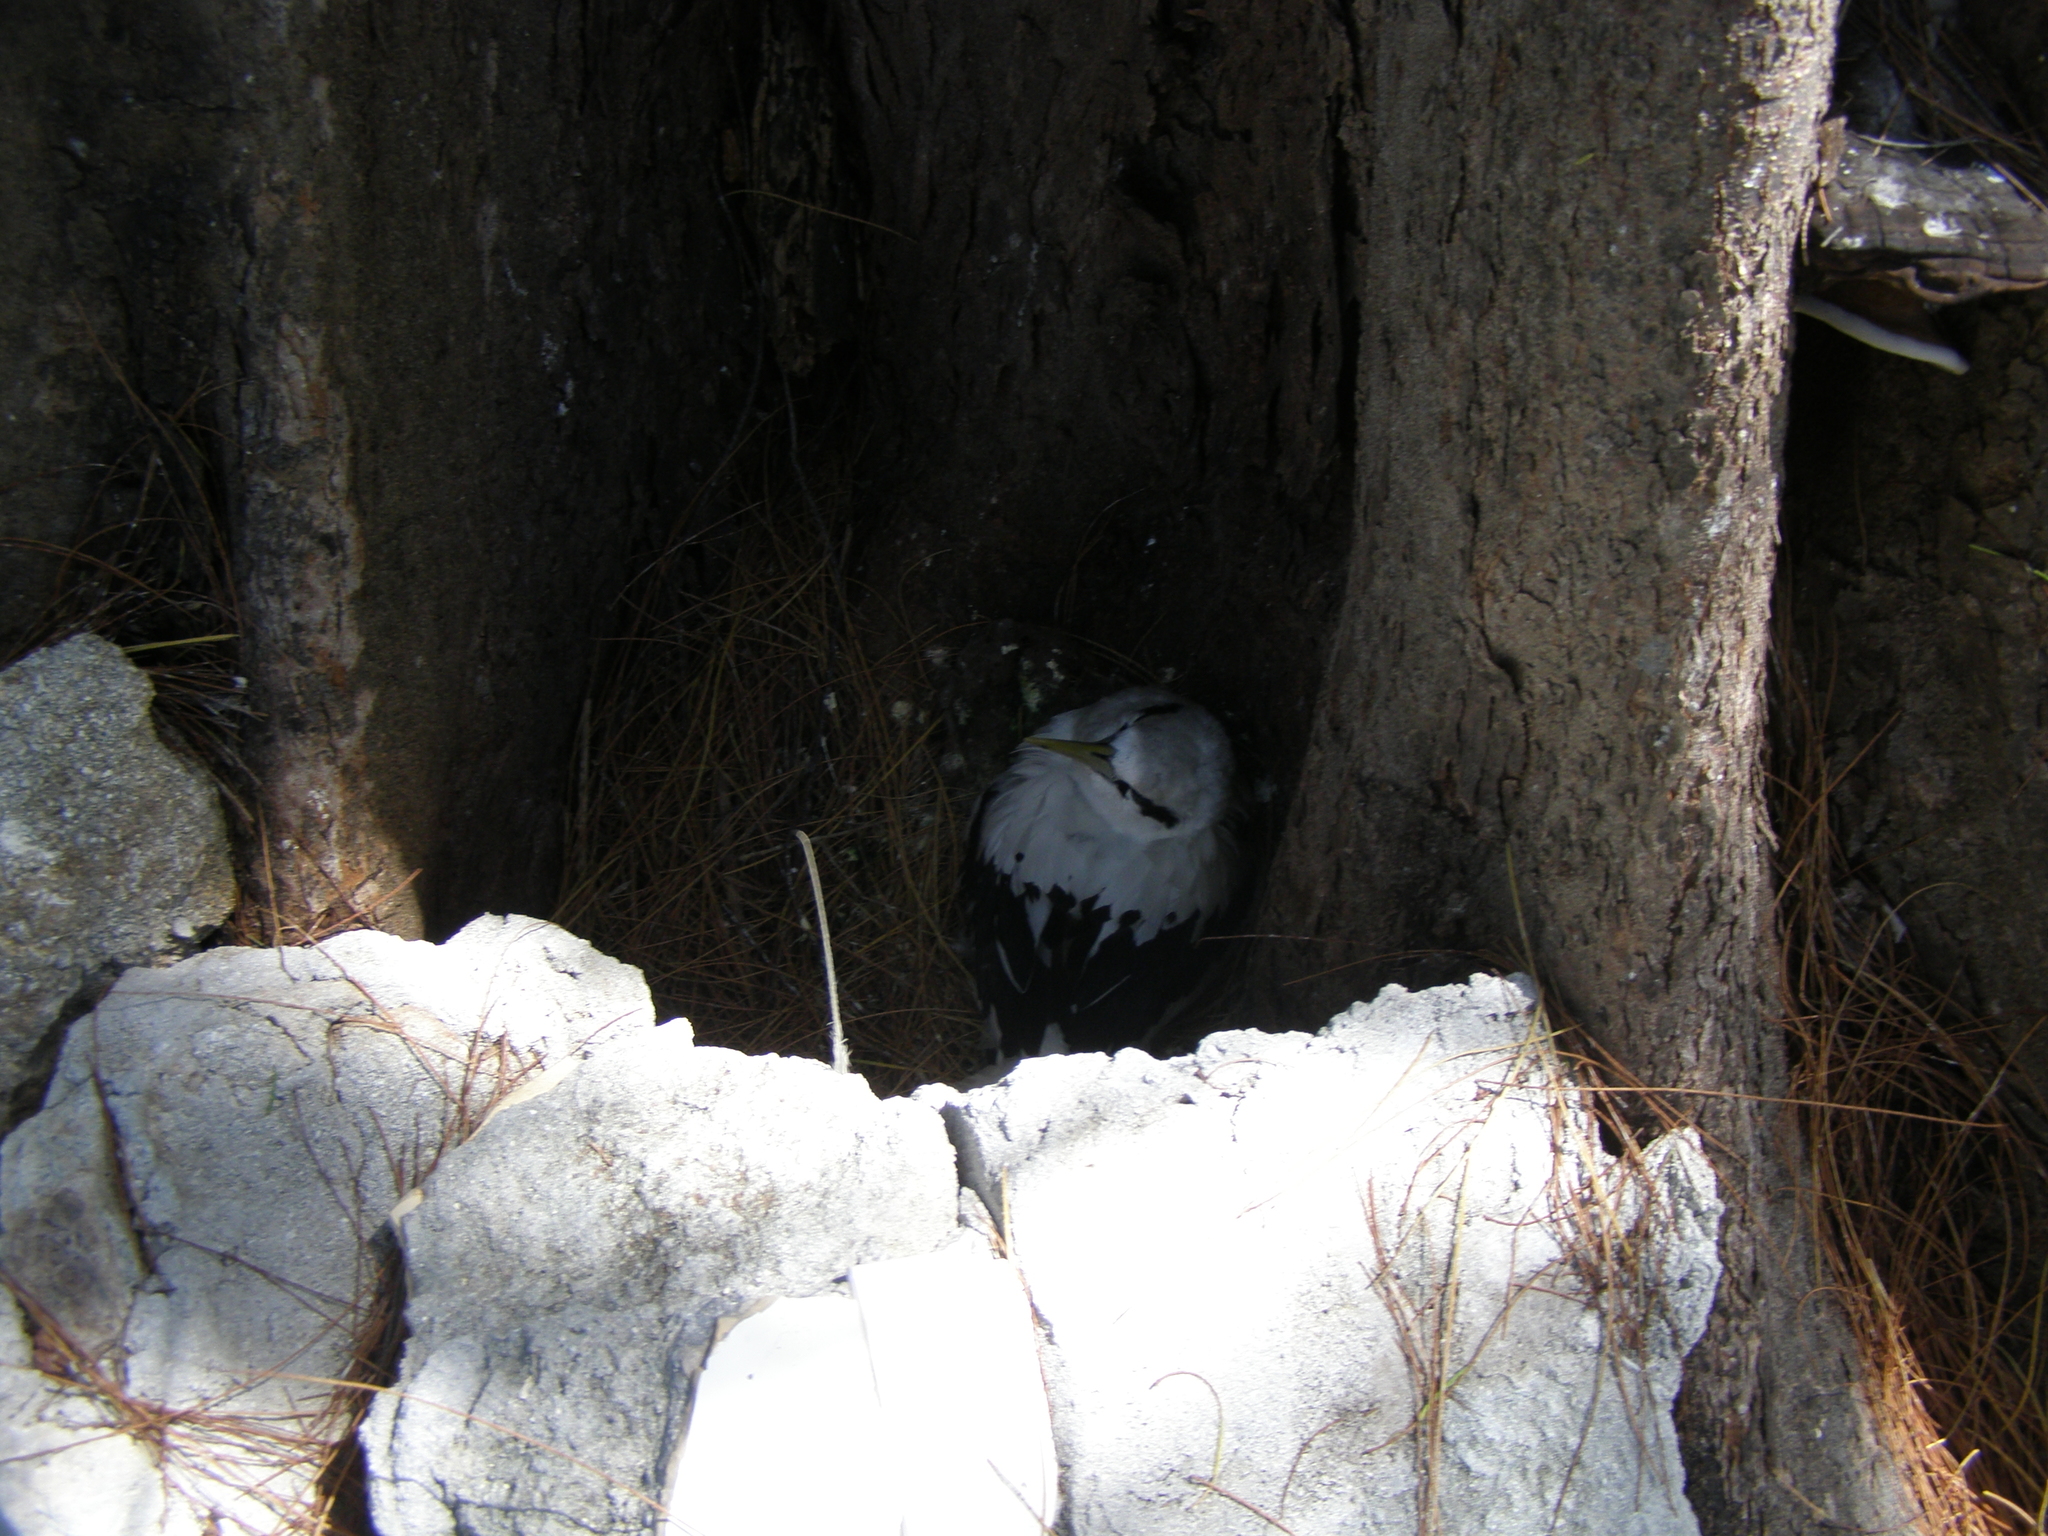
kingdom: Animalia
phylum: Chordata
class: Aves
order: Phaethontiformes
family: Phaethontidae
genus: Phaethon
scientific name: Phaethon lepturus
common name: White-tailed tropicbird
